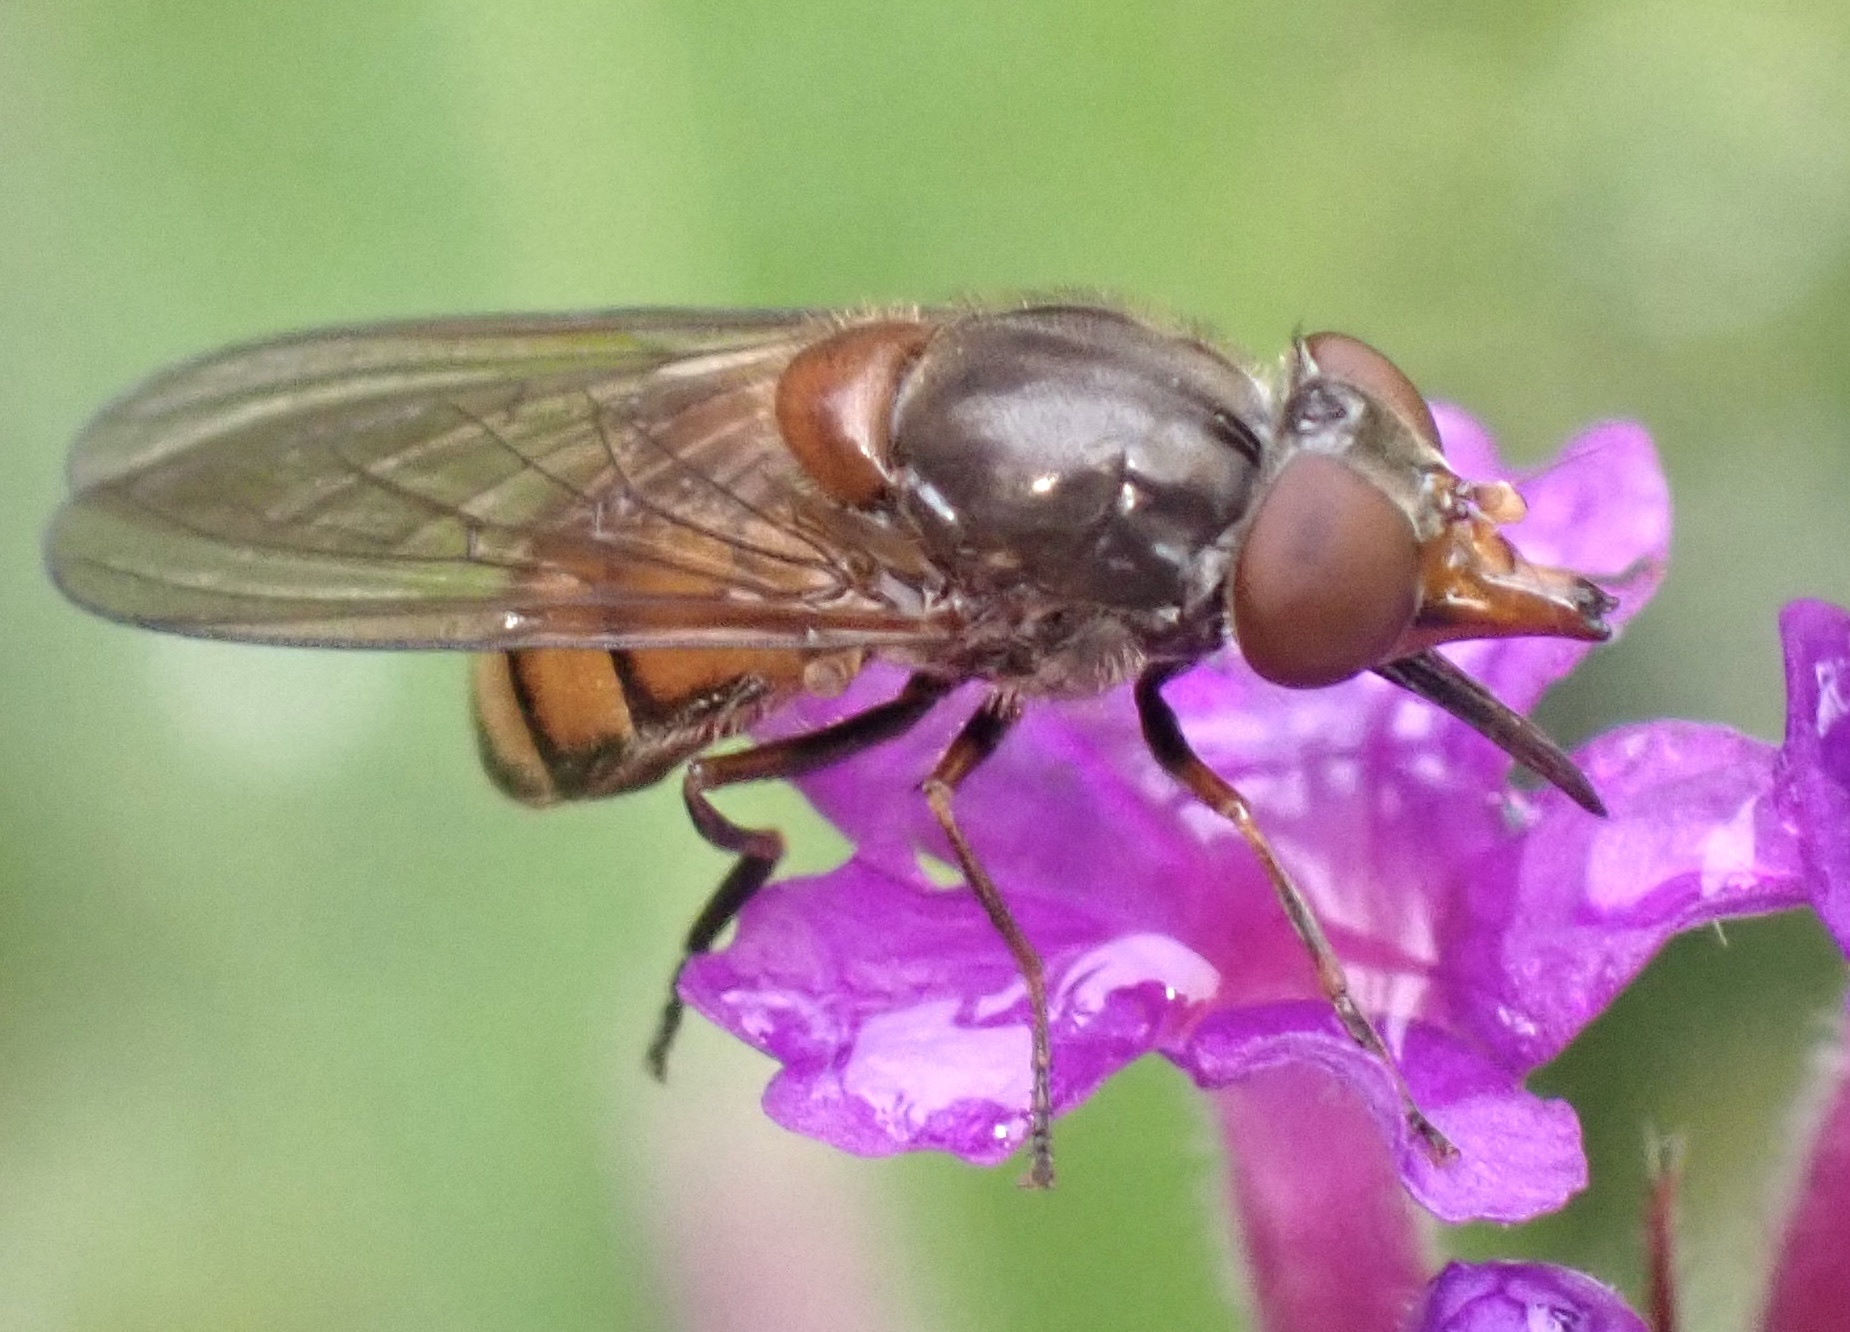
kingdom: Animalia
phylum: Arthropoda
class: Insecta
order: Diptera
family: Syrphidae
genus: Rhingia
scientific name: Rhingia campestris
